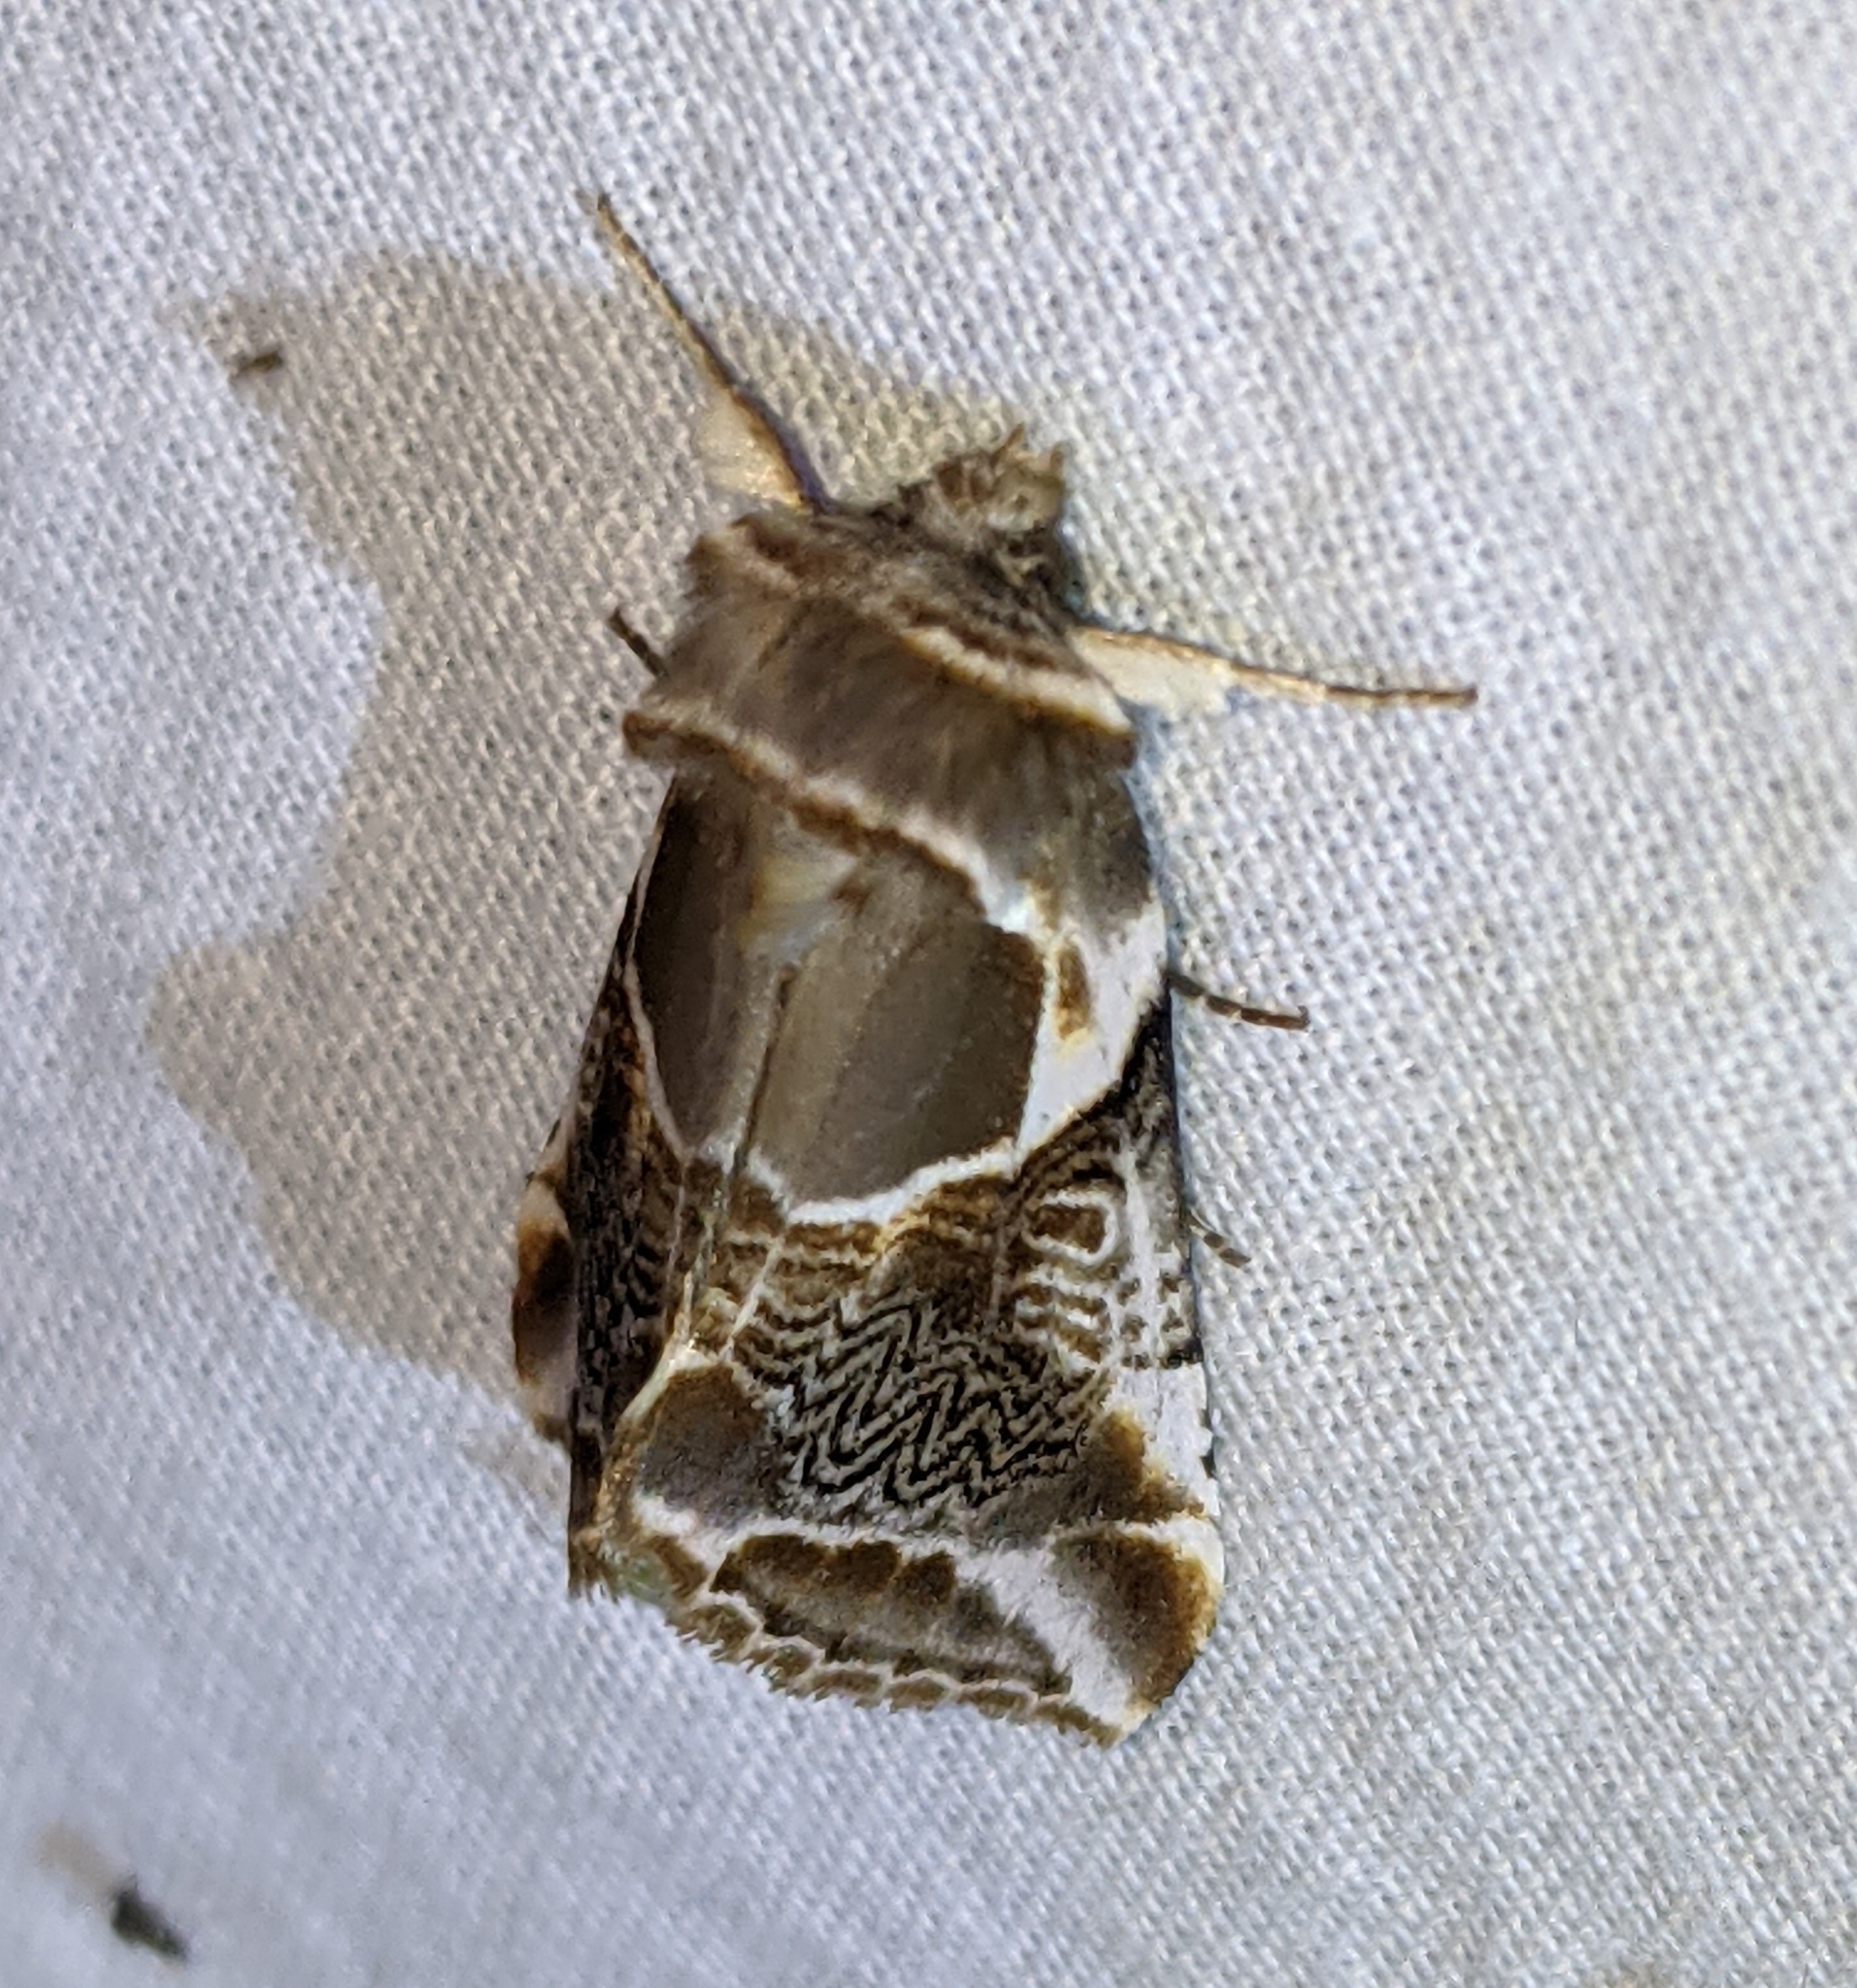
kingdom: Animalia
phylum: Arthropoda
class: Insecta
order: Lepidoptera
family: Drepanidae
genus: Habrosyne
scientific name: Habrosyne scripta
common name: Lettered habrosyne moth
